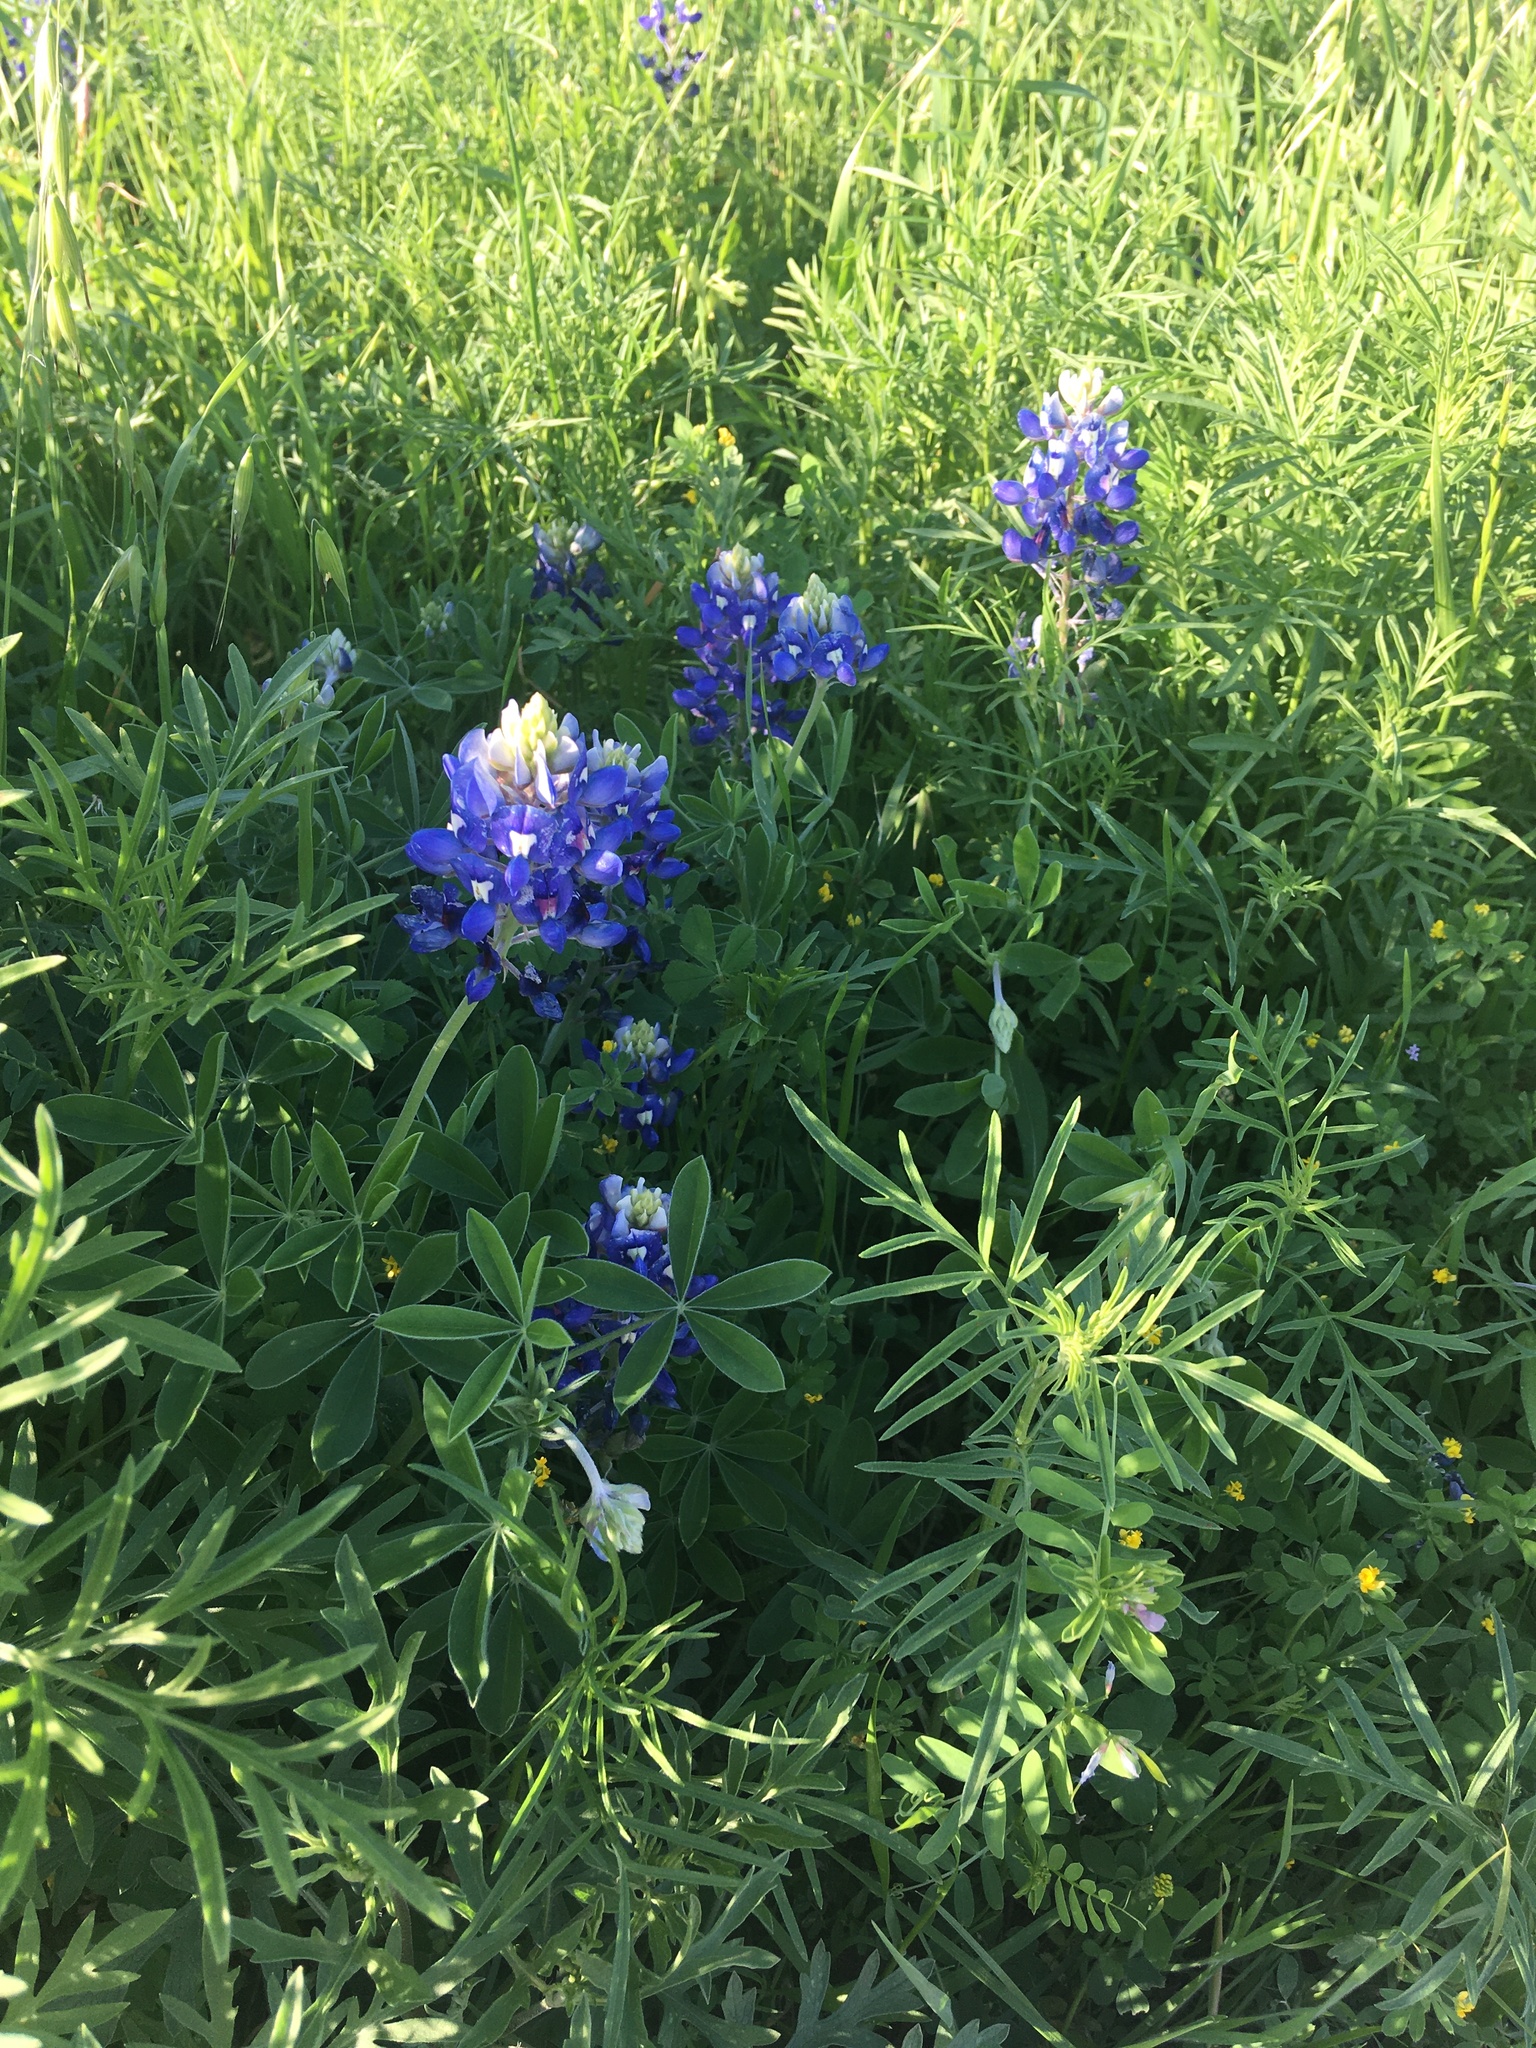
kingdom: Plantae
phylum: Tracheophyta
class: Magnoliopsida
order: Fabales
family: Fabaceae
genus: Lupinus
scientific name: Lupinus texensis
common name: Texas bluebonnet
